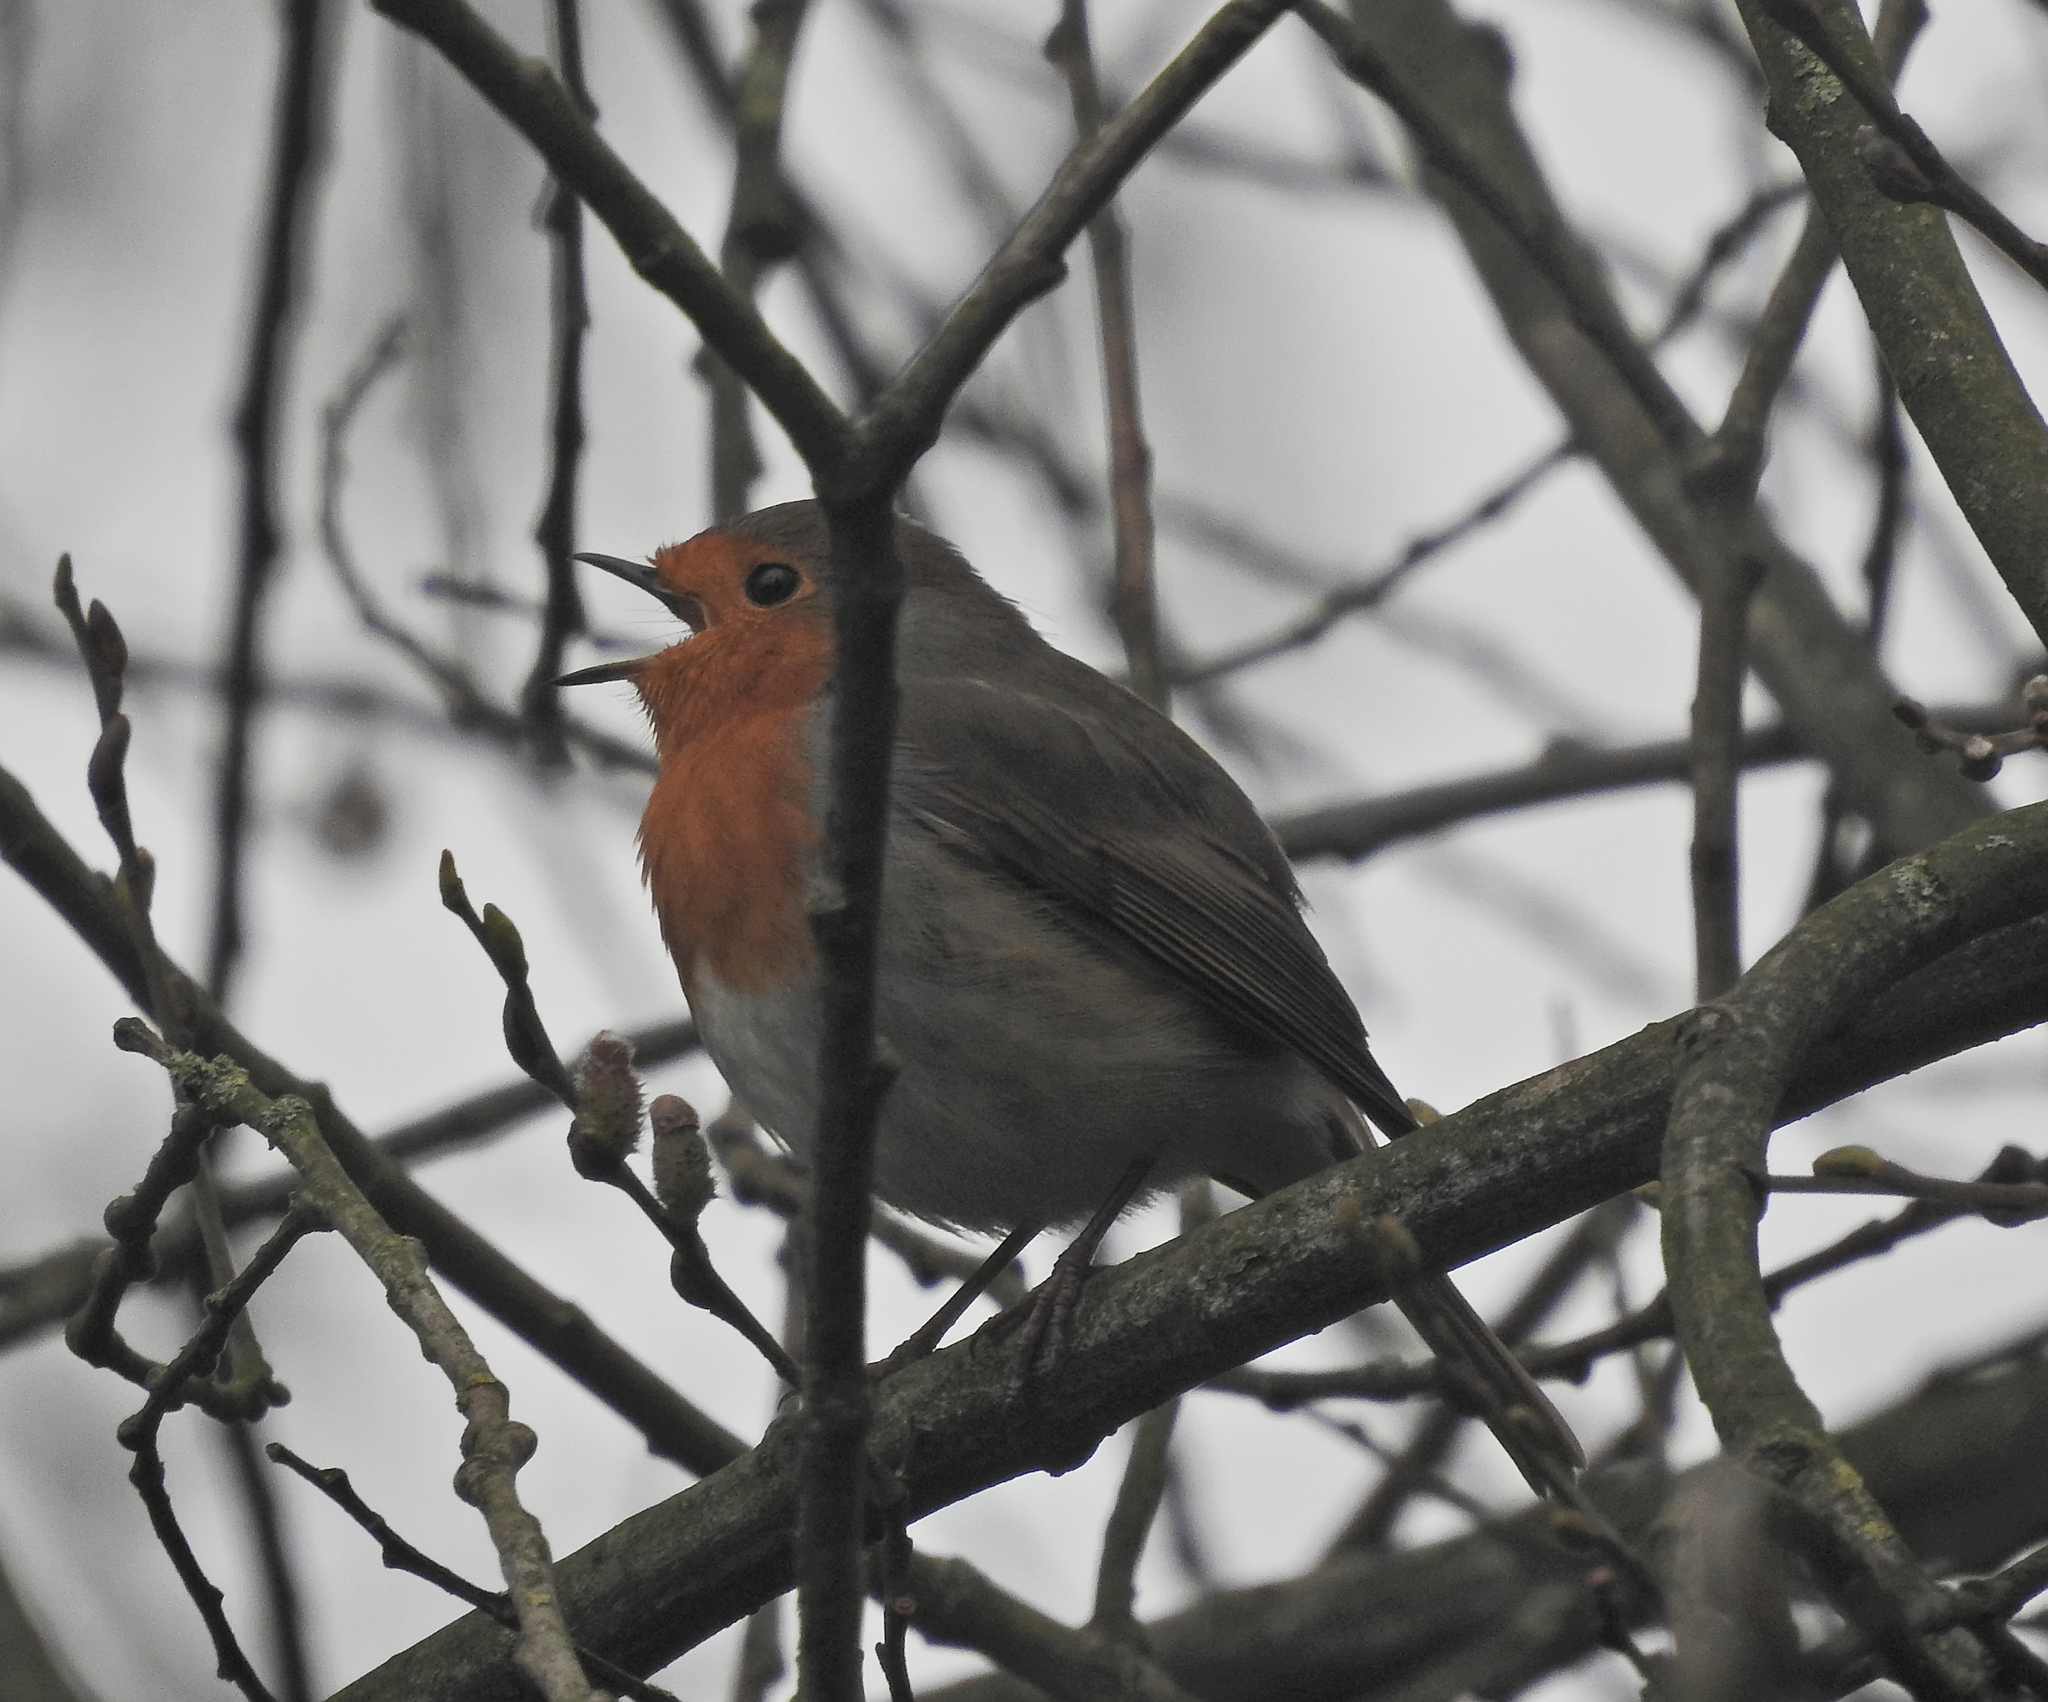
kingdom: Animalia
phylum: Chordata
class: Aves
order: Passeriformes
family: Muscicapidae
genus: Erithacus
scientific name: Erithacus rubecula
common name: European robin
